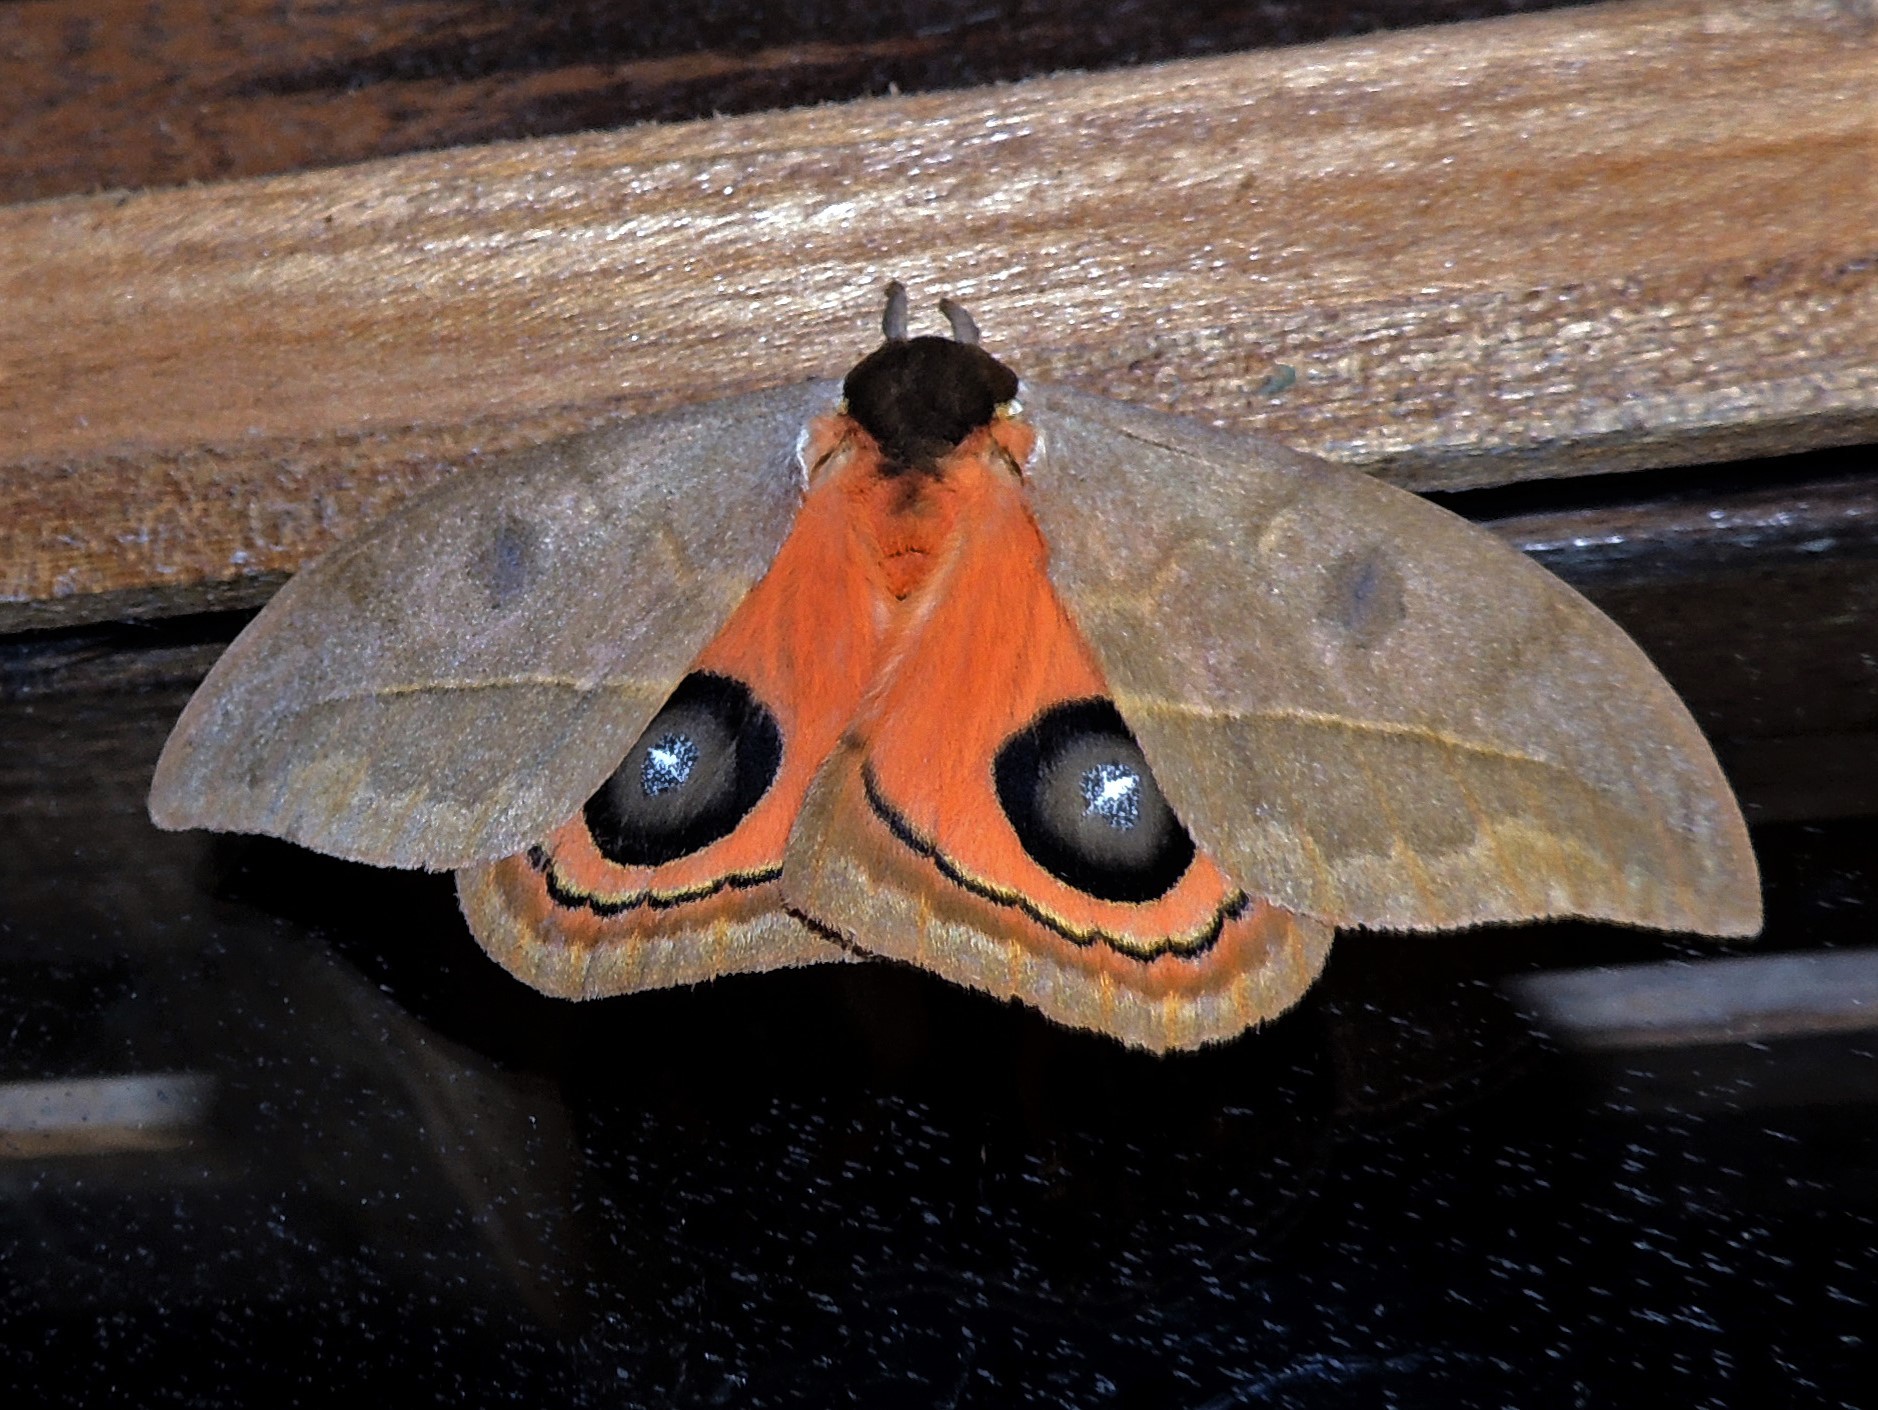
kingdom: Animalia
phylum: Arthropoda
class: Insecta
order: Lepidoptera
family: Saturniidae
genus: Automeris
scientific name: Automeris illustris
